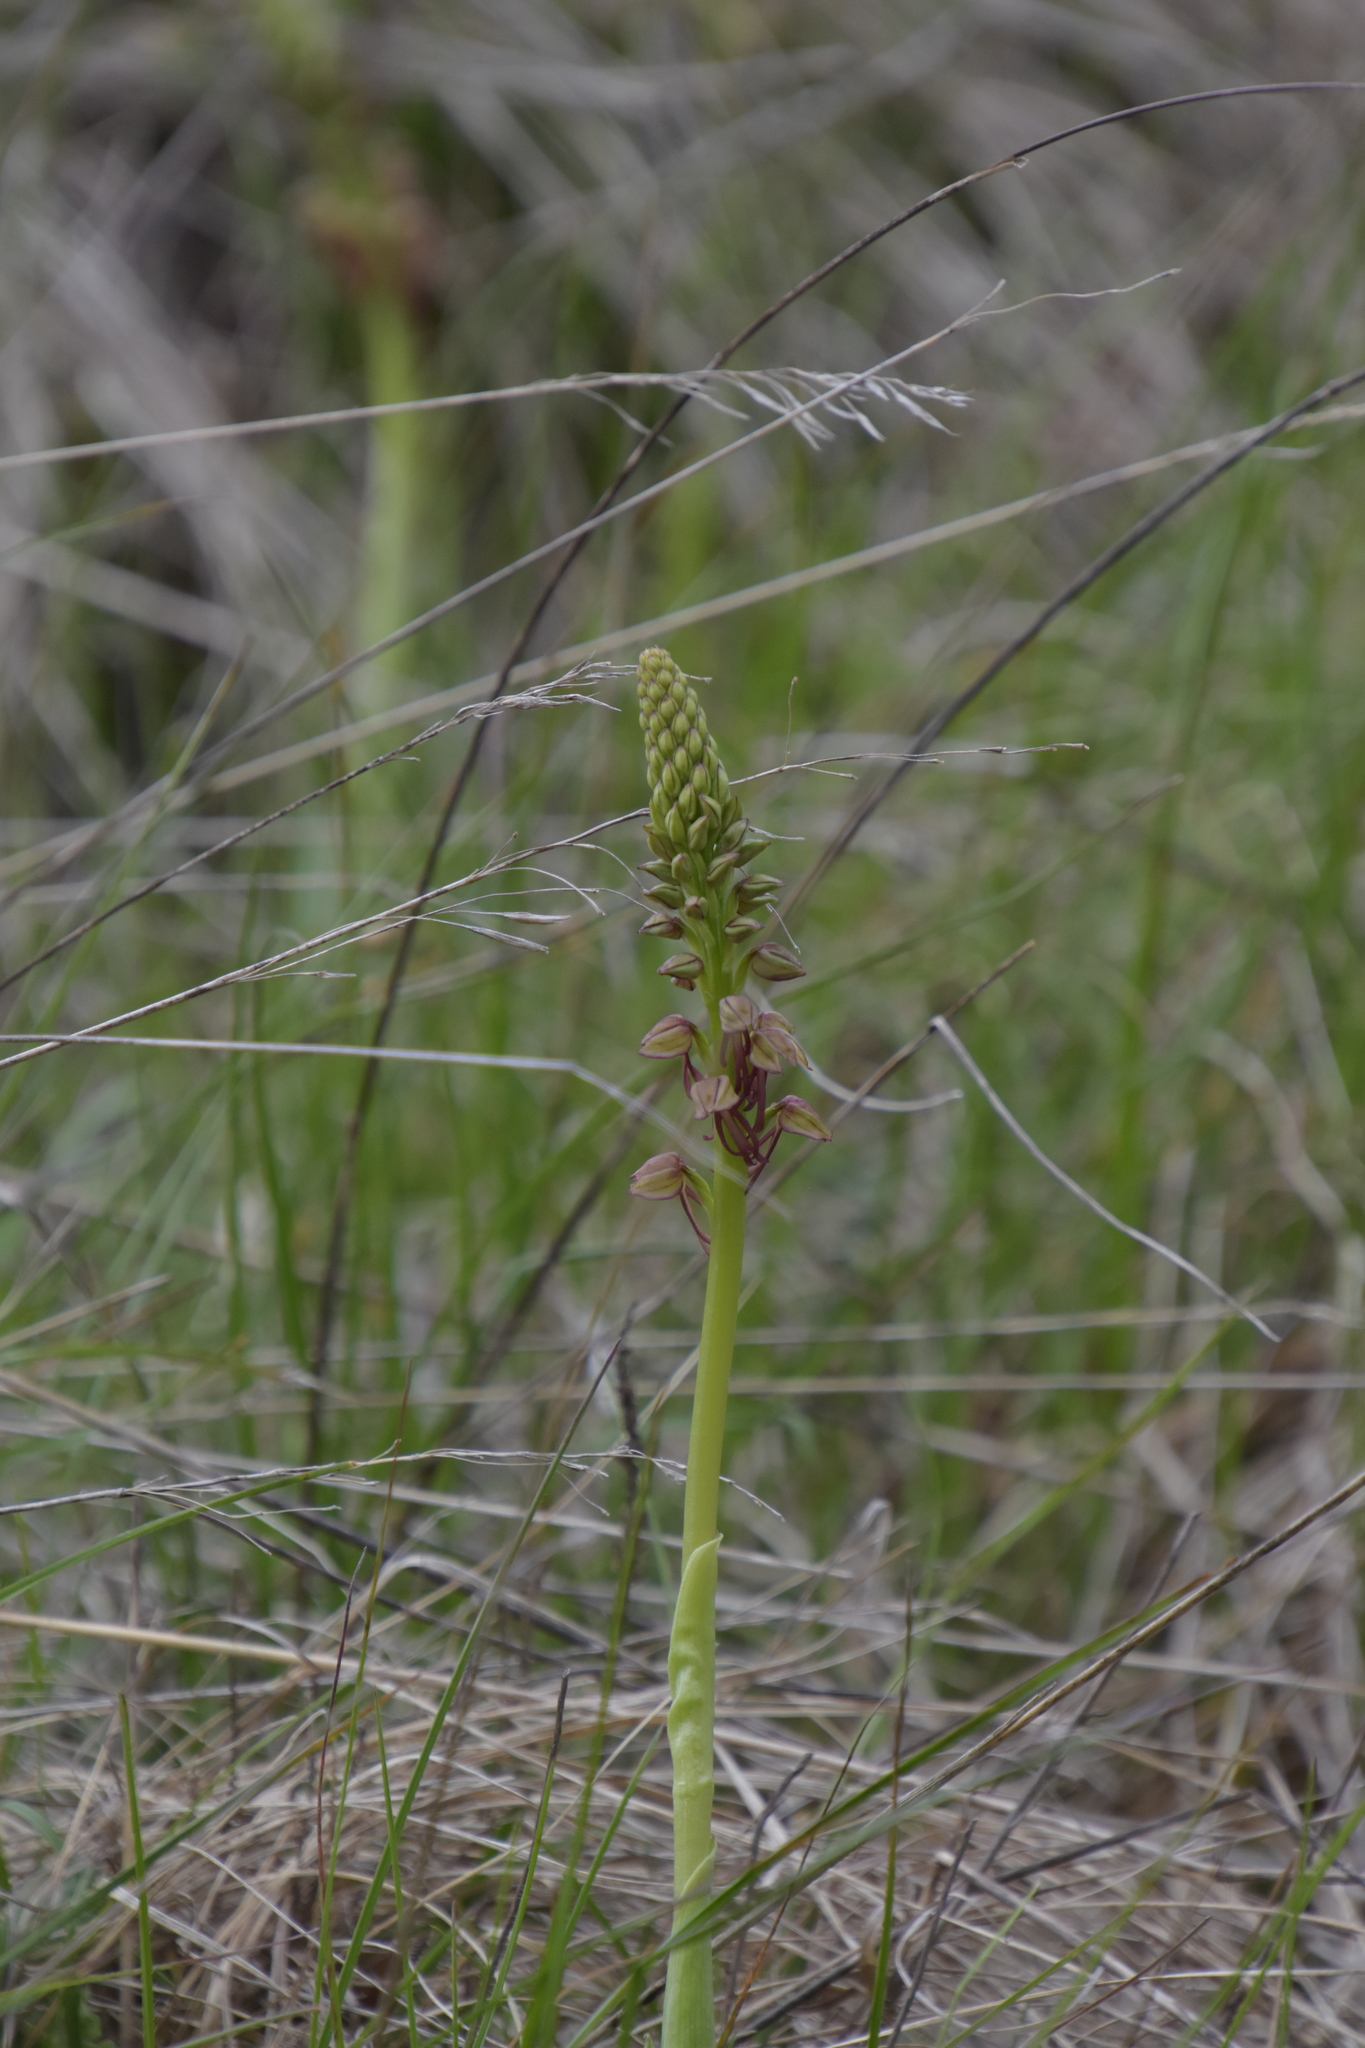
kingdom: Plantae
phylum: Tracheophyta
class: Liliopsida
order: Asparagales
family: Orchidaceae
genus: Orchis
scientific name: Orchis anthropophora
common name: Man orchid
